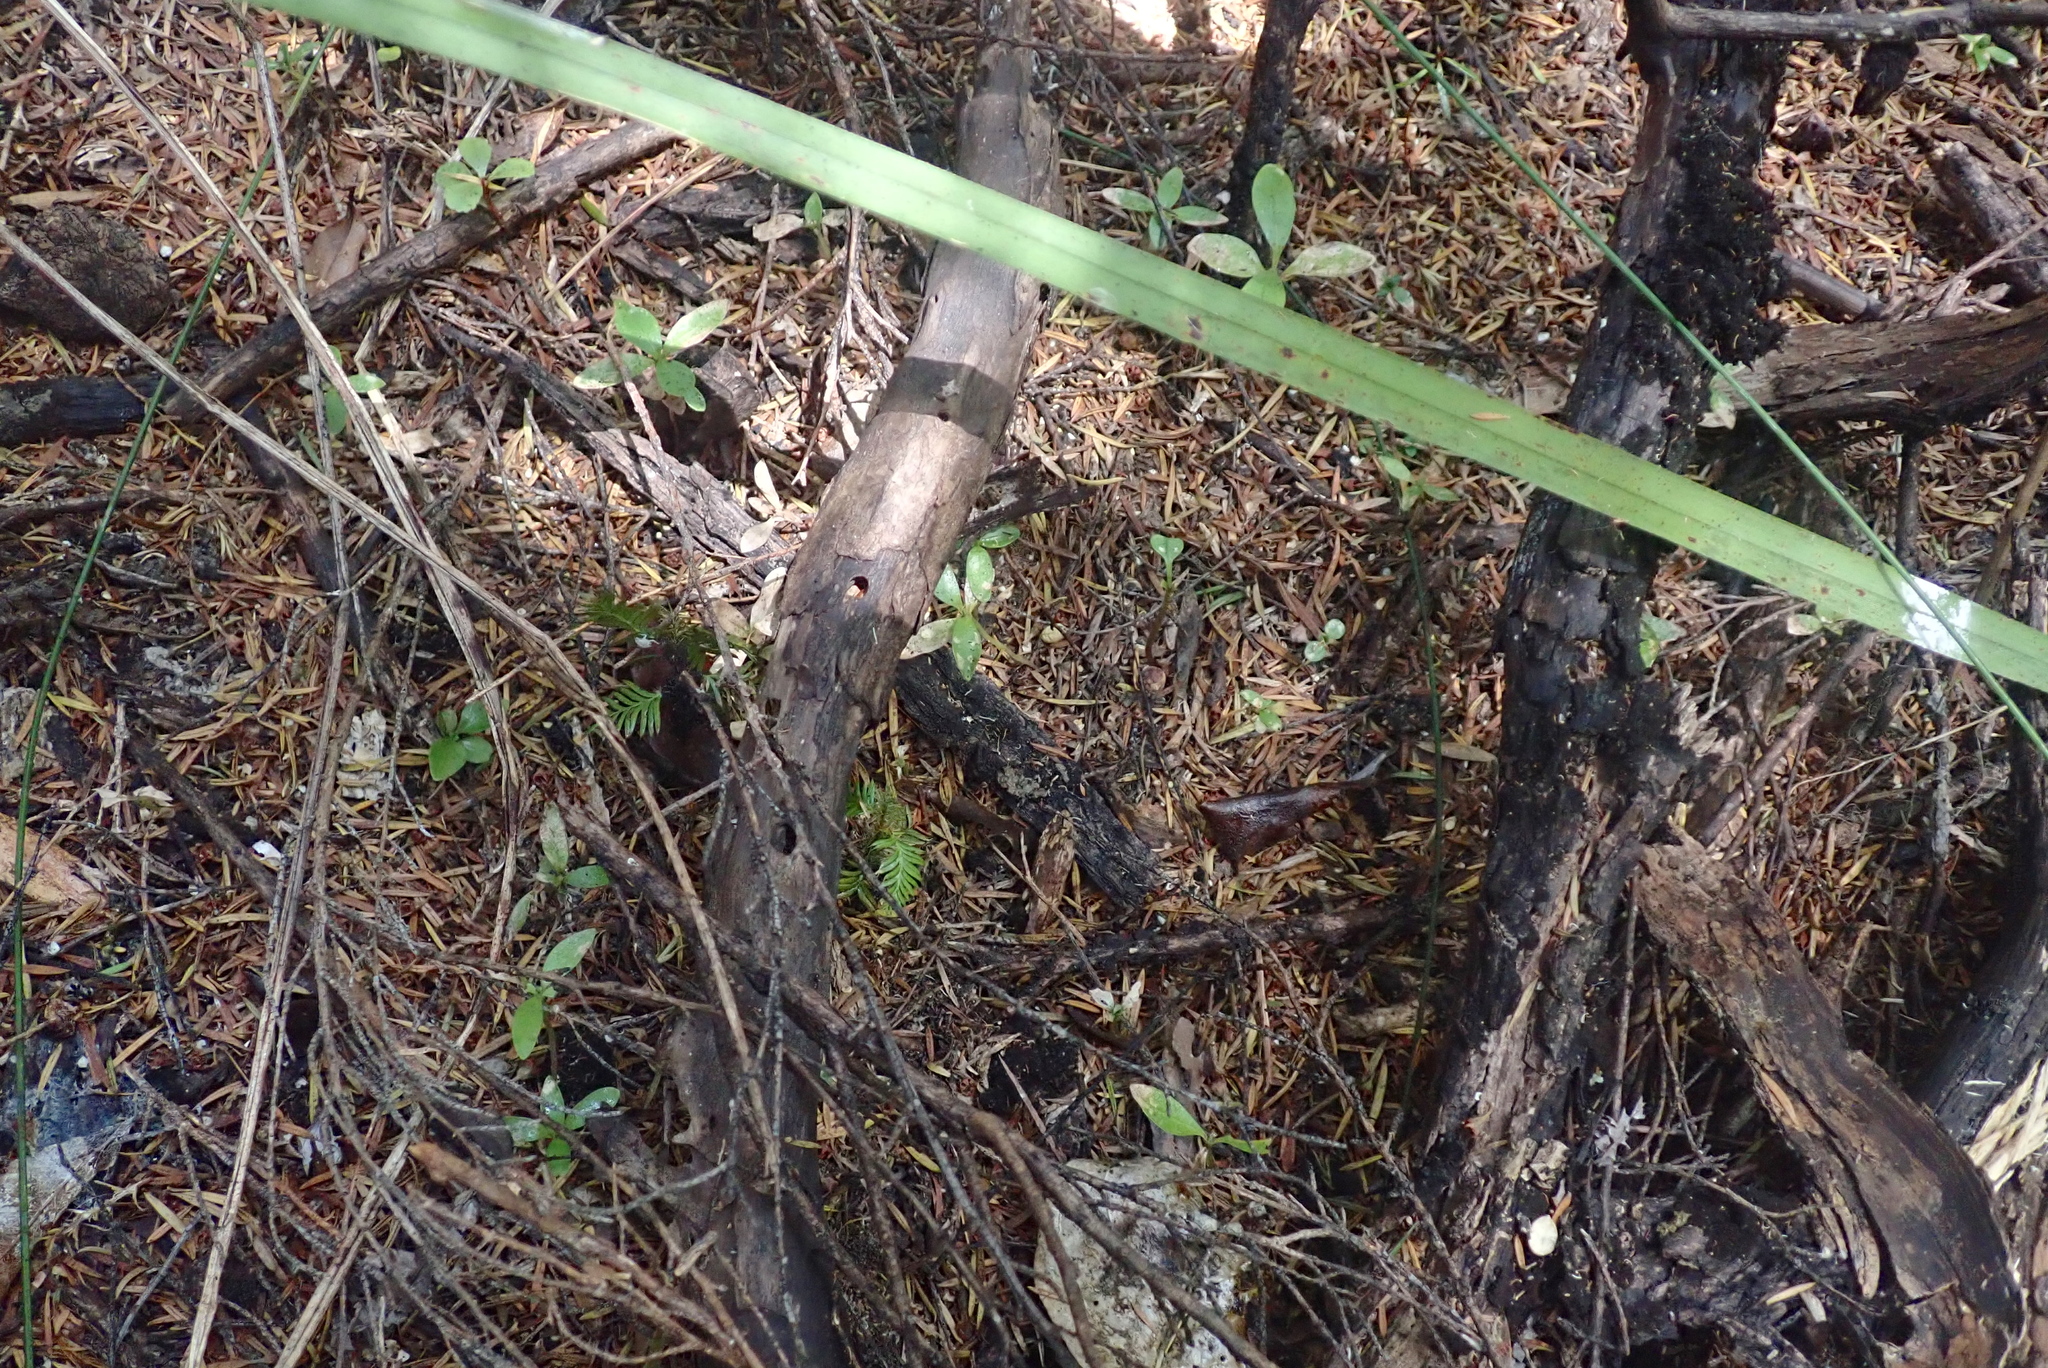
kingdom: Plantae
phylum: Tracheophyta
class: Pinopsida
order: Pinales
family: Podocarpaceae
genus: Dacrycarpus
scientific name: Dacrycarpus dacrydioides
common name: White pine
